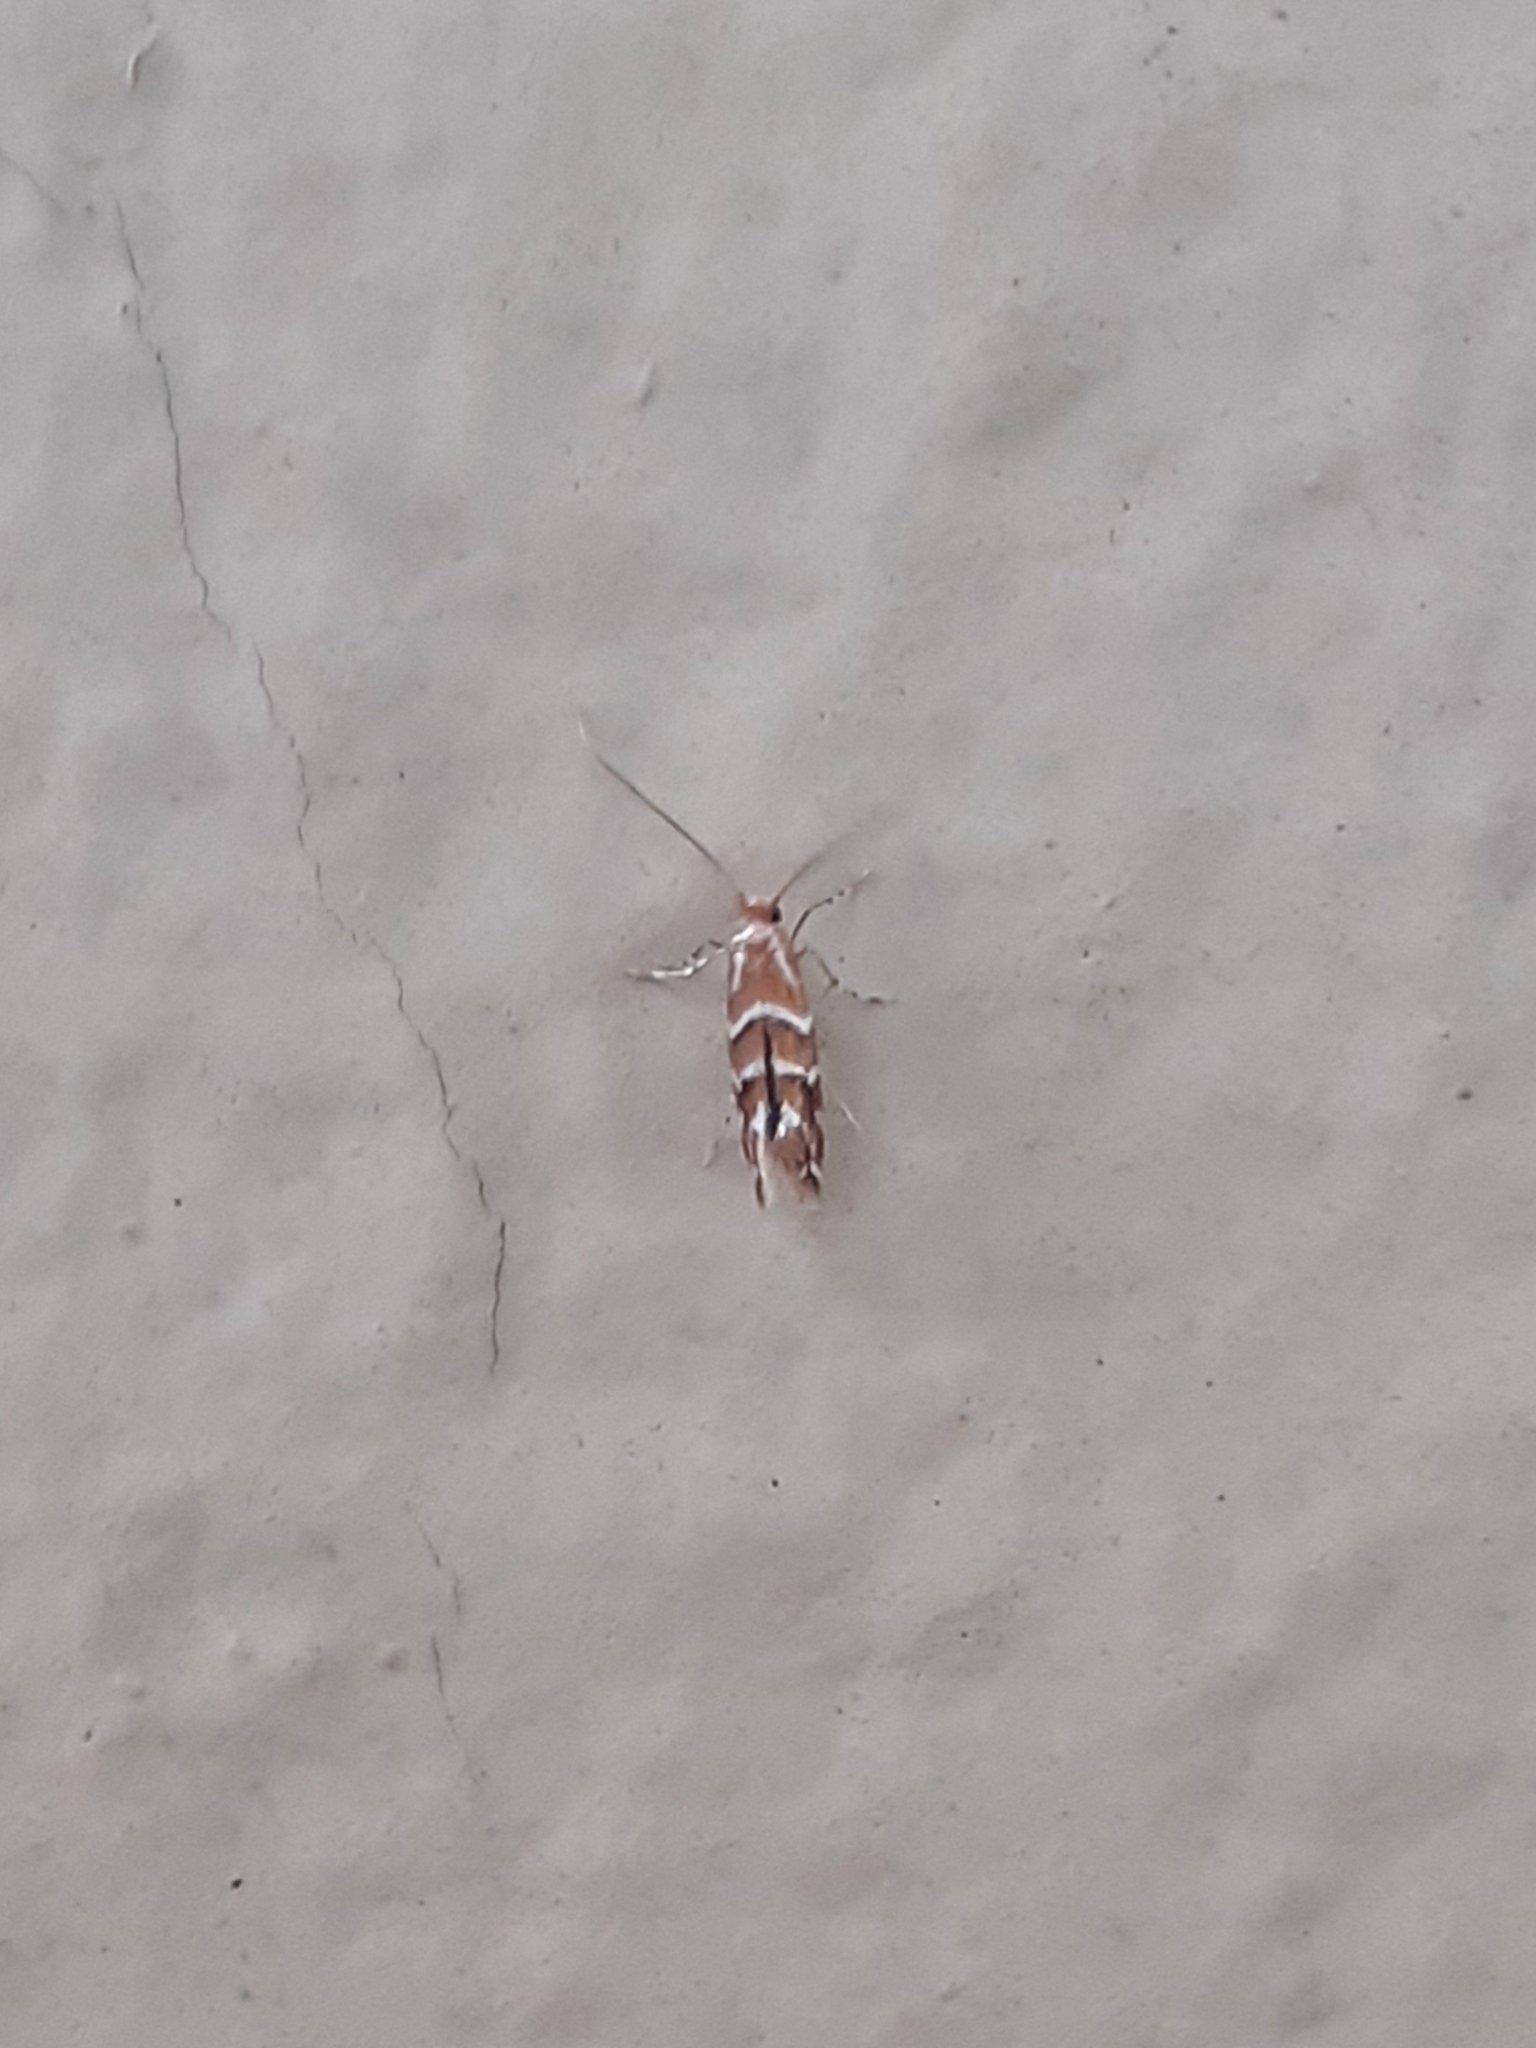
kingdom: Animalia
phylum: Arthropoda
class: Insecta
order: Lepidoptera
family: Gracillariidae
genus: Cameraria
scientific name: Cameraria ohridella
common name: Horse-chestnut leaf-miner
